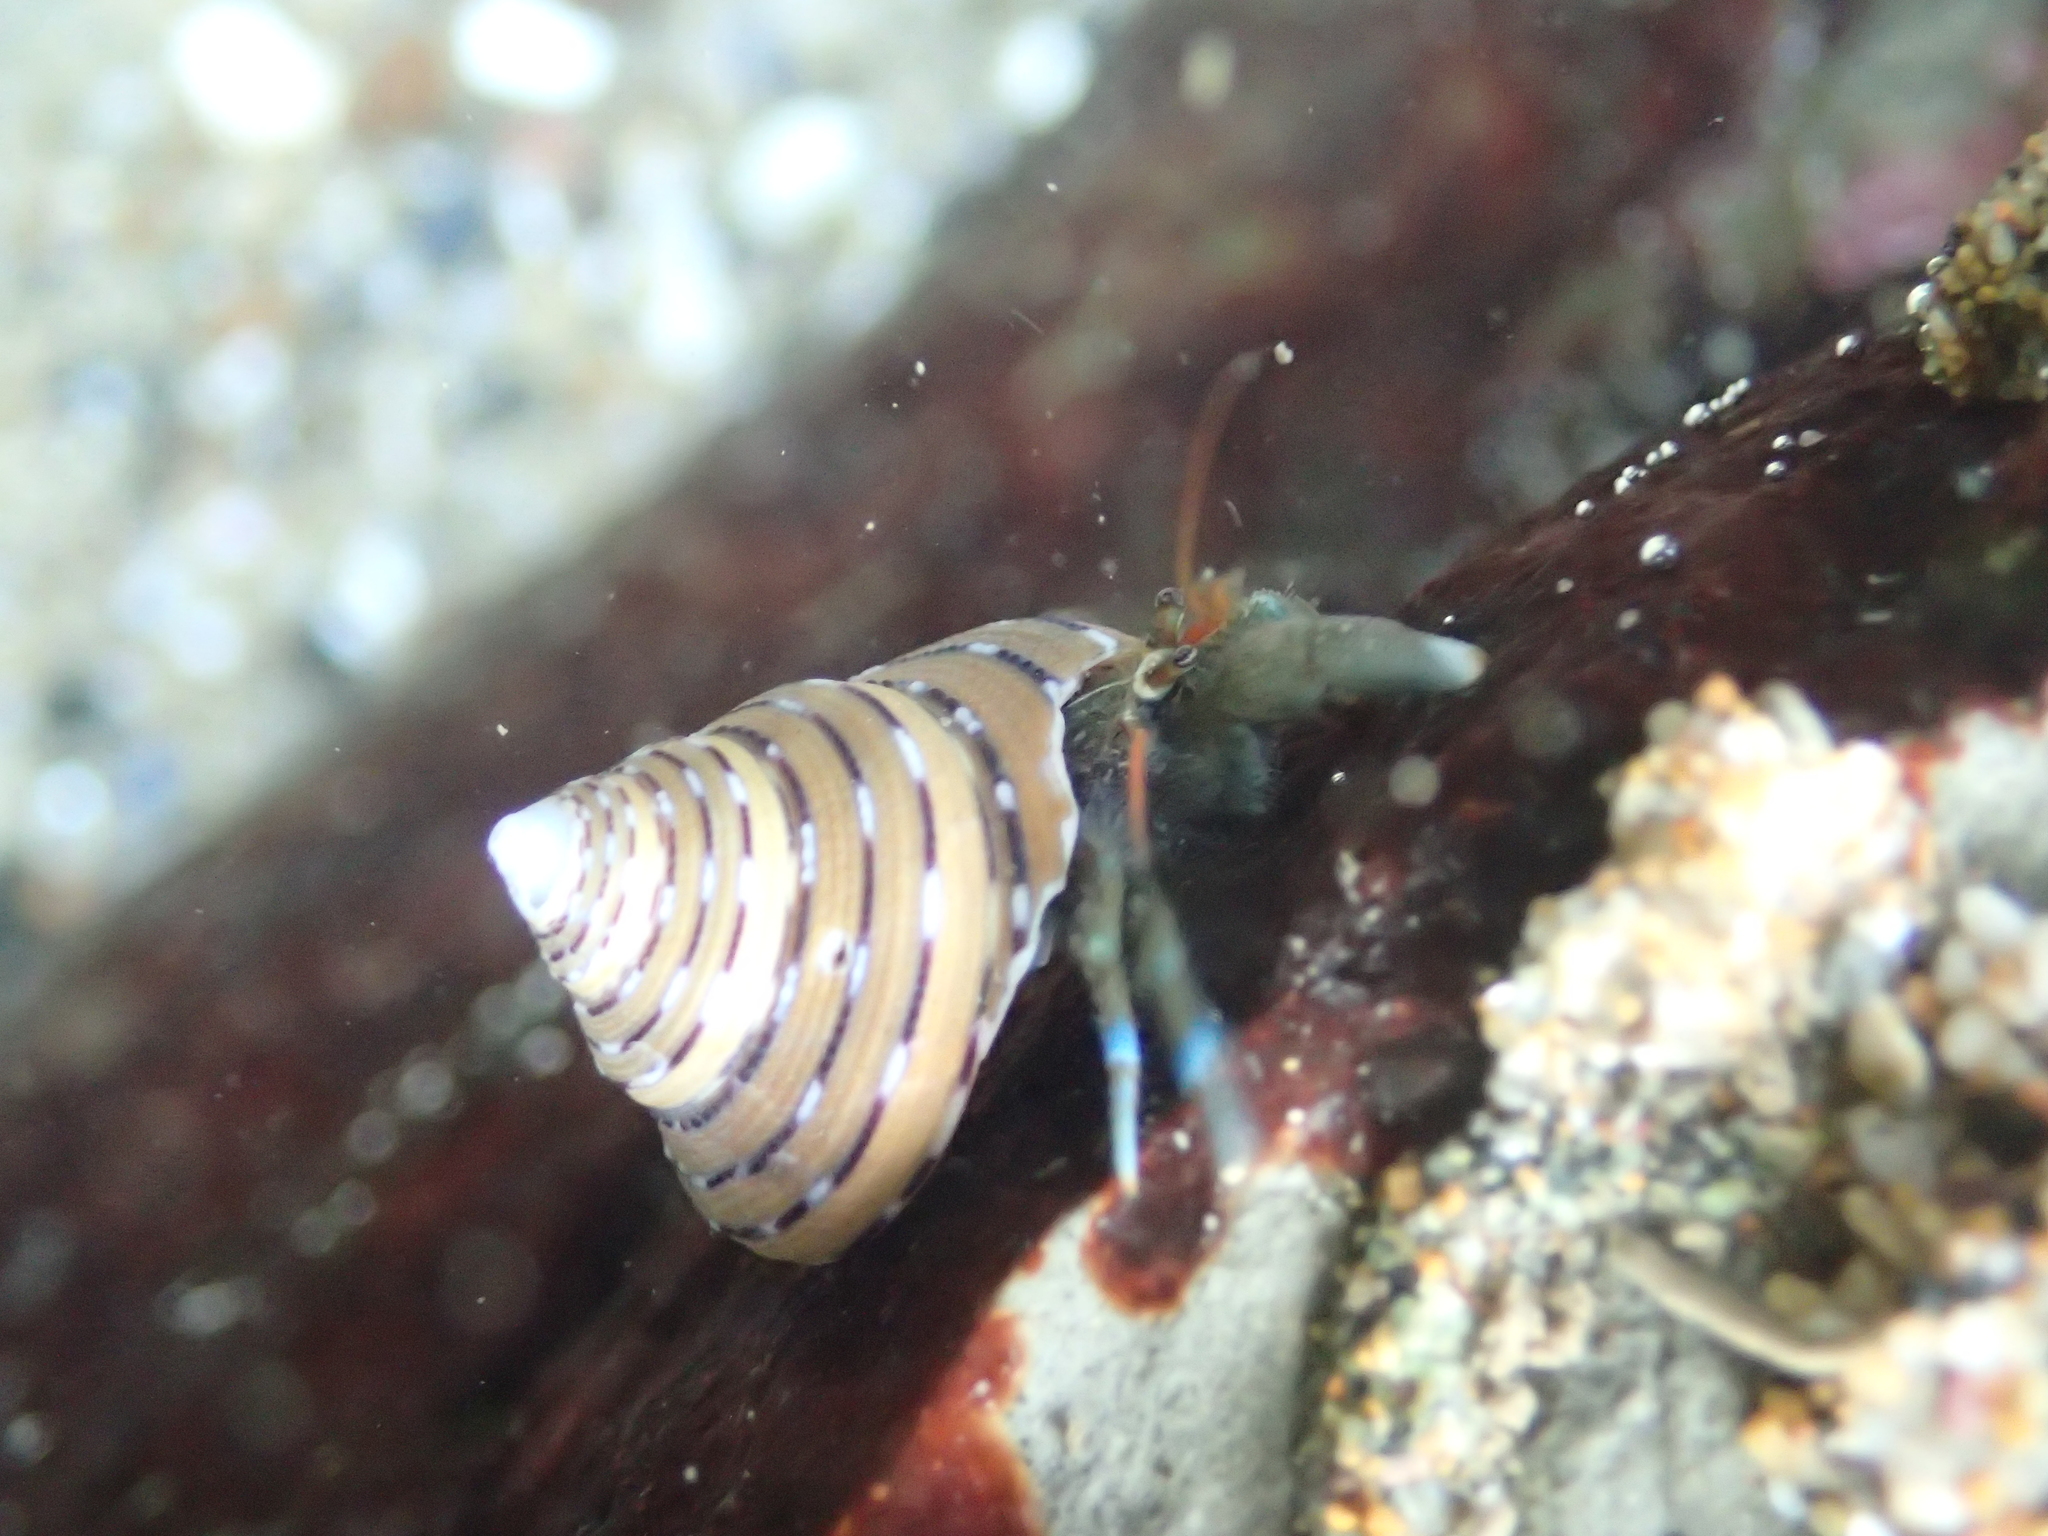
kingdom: Animalia
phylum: Arthropoda
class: Malacostraca
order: Decapoda
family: Paguridae
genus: Pagurus
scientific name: Pagurus samuelis
